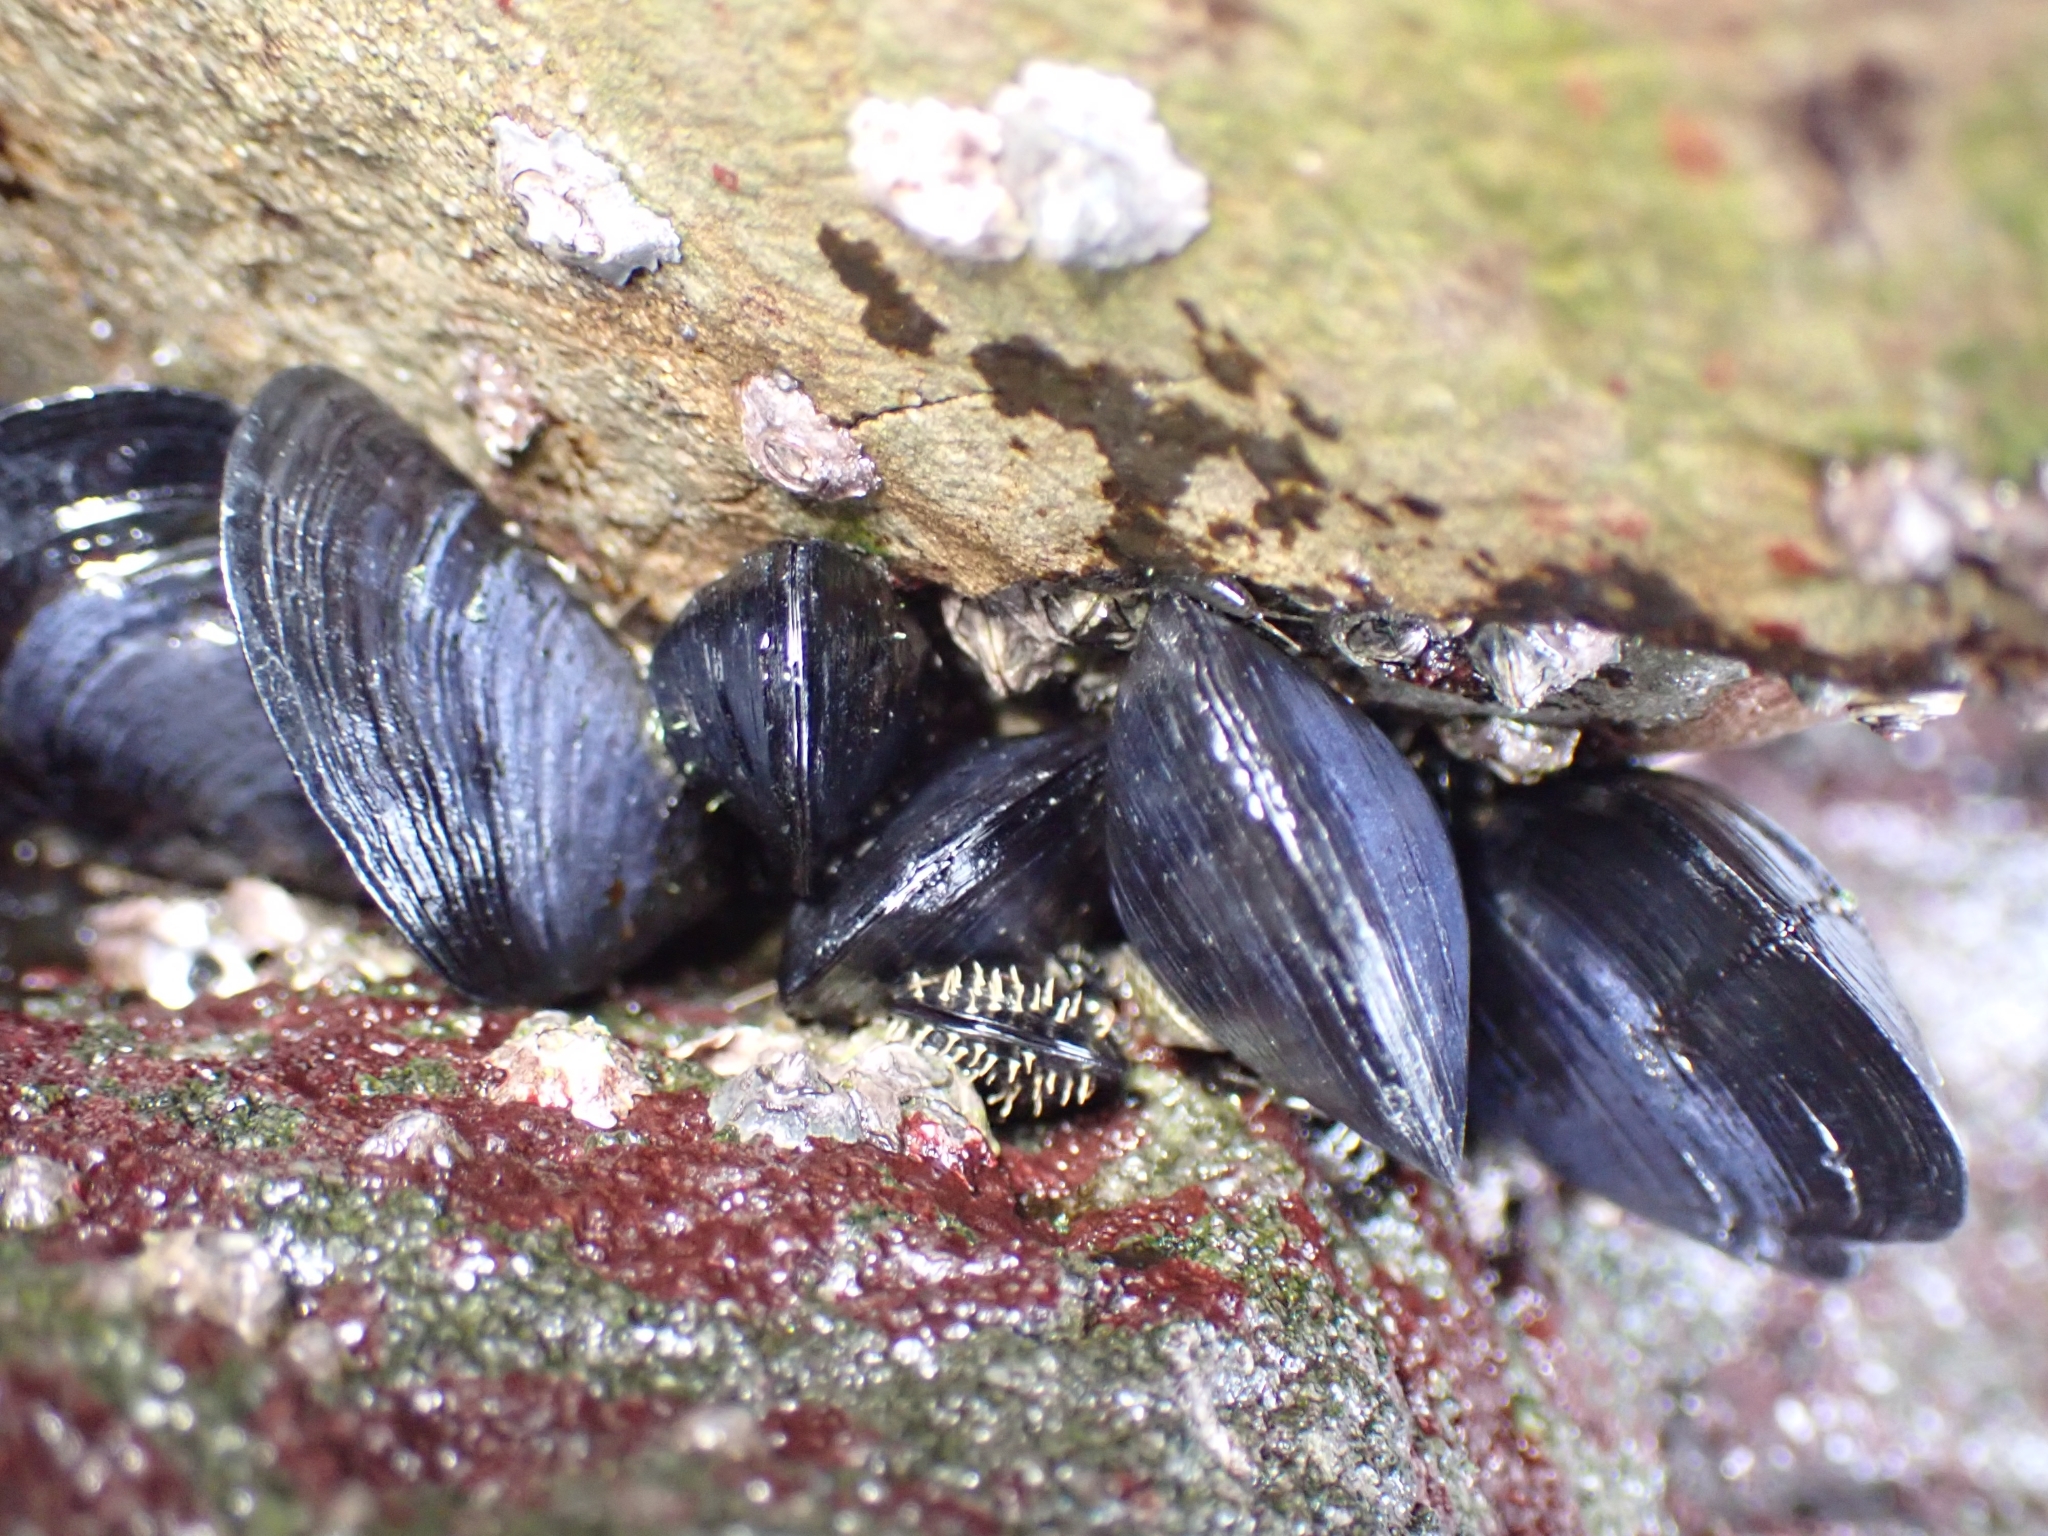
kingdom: Animalia
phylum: Mollusca
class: Bivalvia
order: Mytilida
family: Mytilidae
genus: Mytilus
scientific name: Mytilus planulatus
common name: Australian mussel
